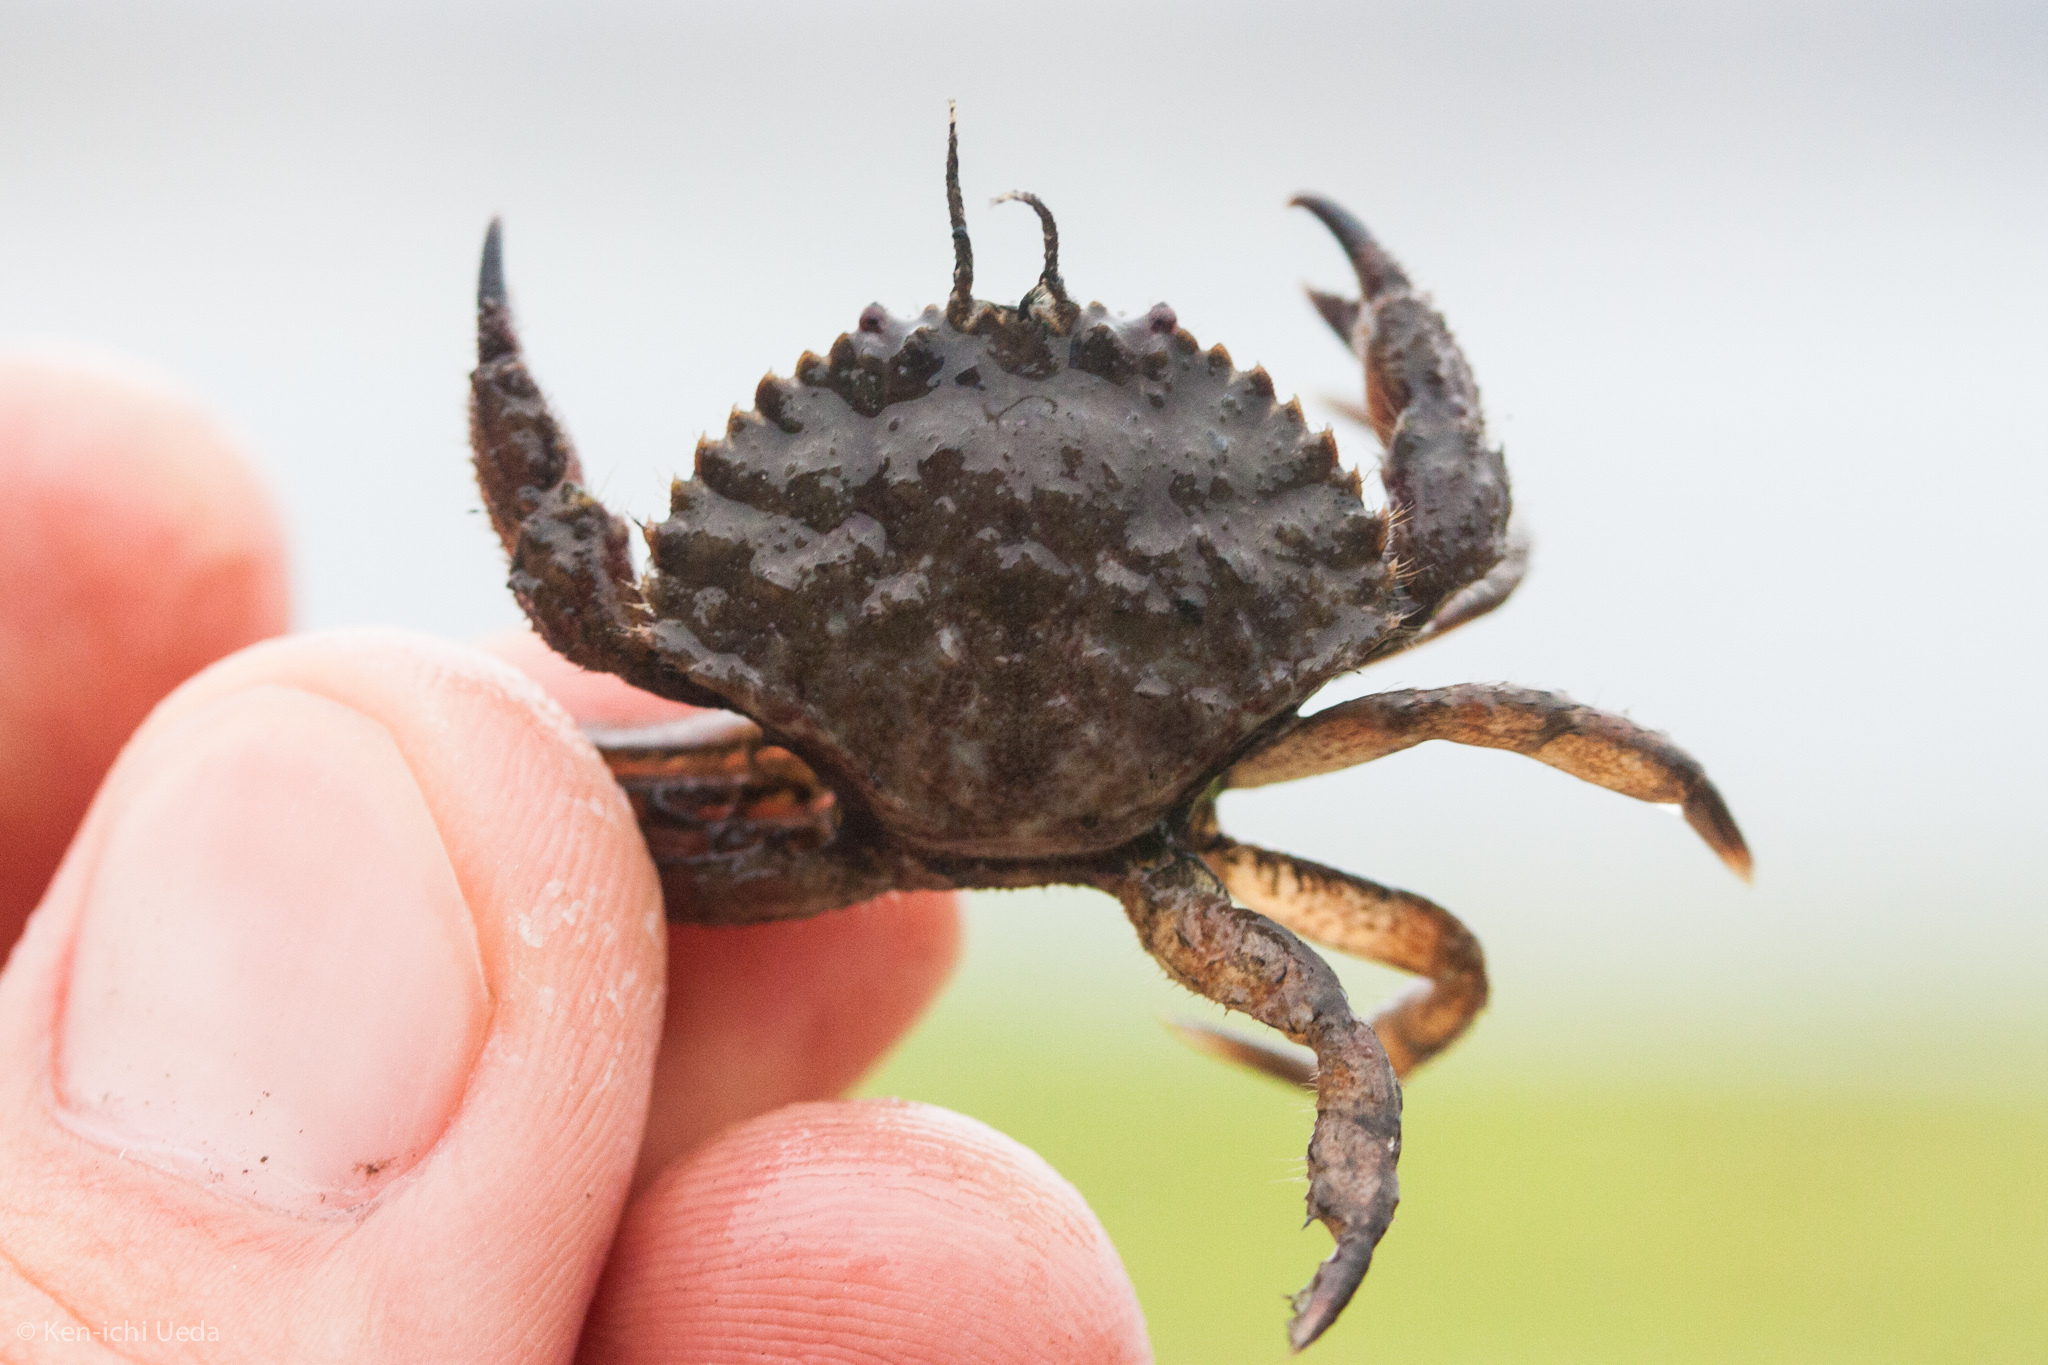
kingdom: Animalia
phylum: Arthropoda
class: Malacostraca
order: Decapoda
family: Cancridae
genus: Romaleon
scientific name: Romaleon jordani
